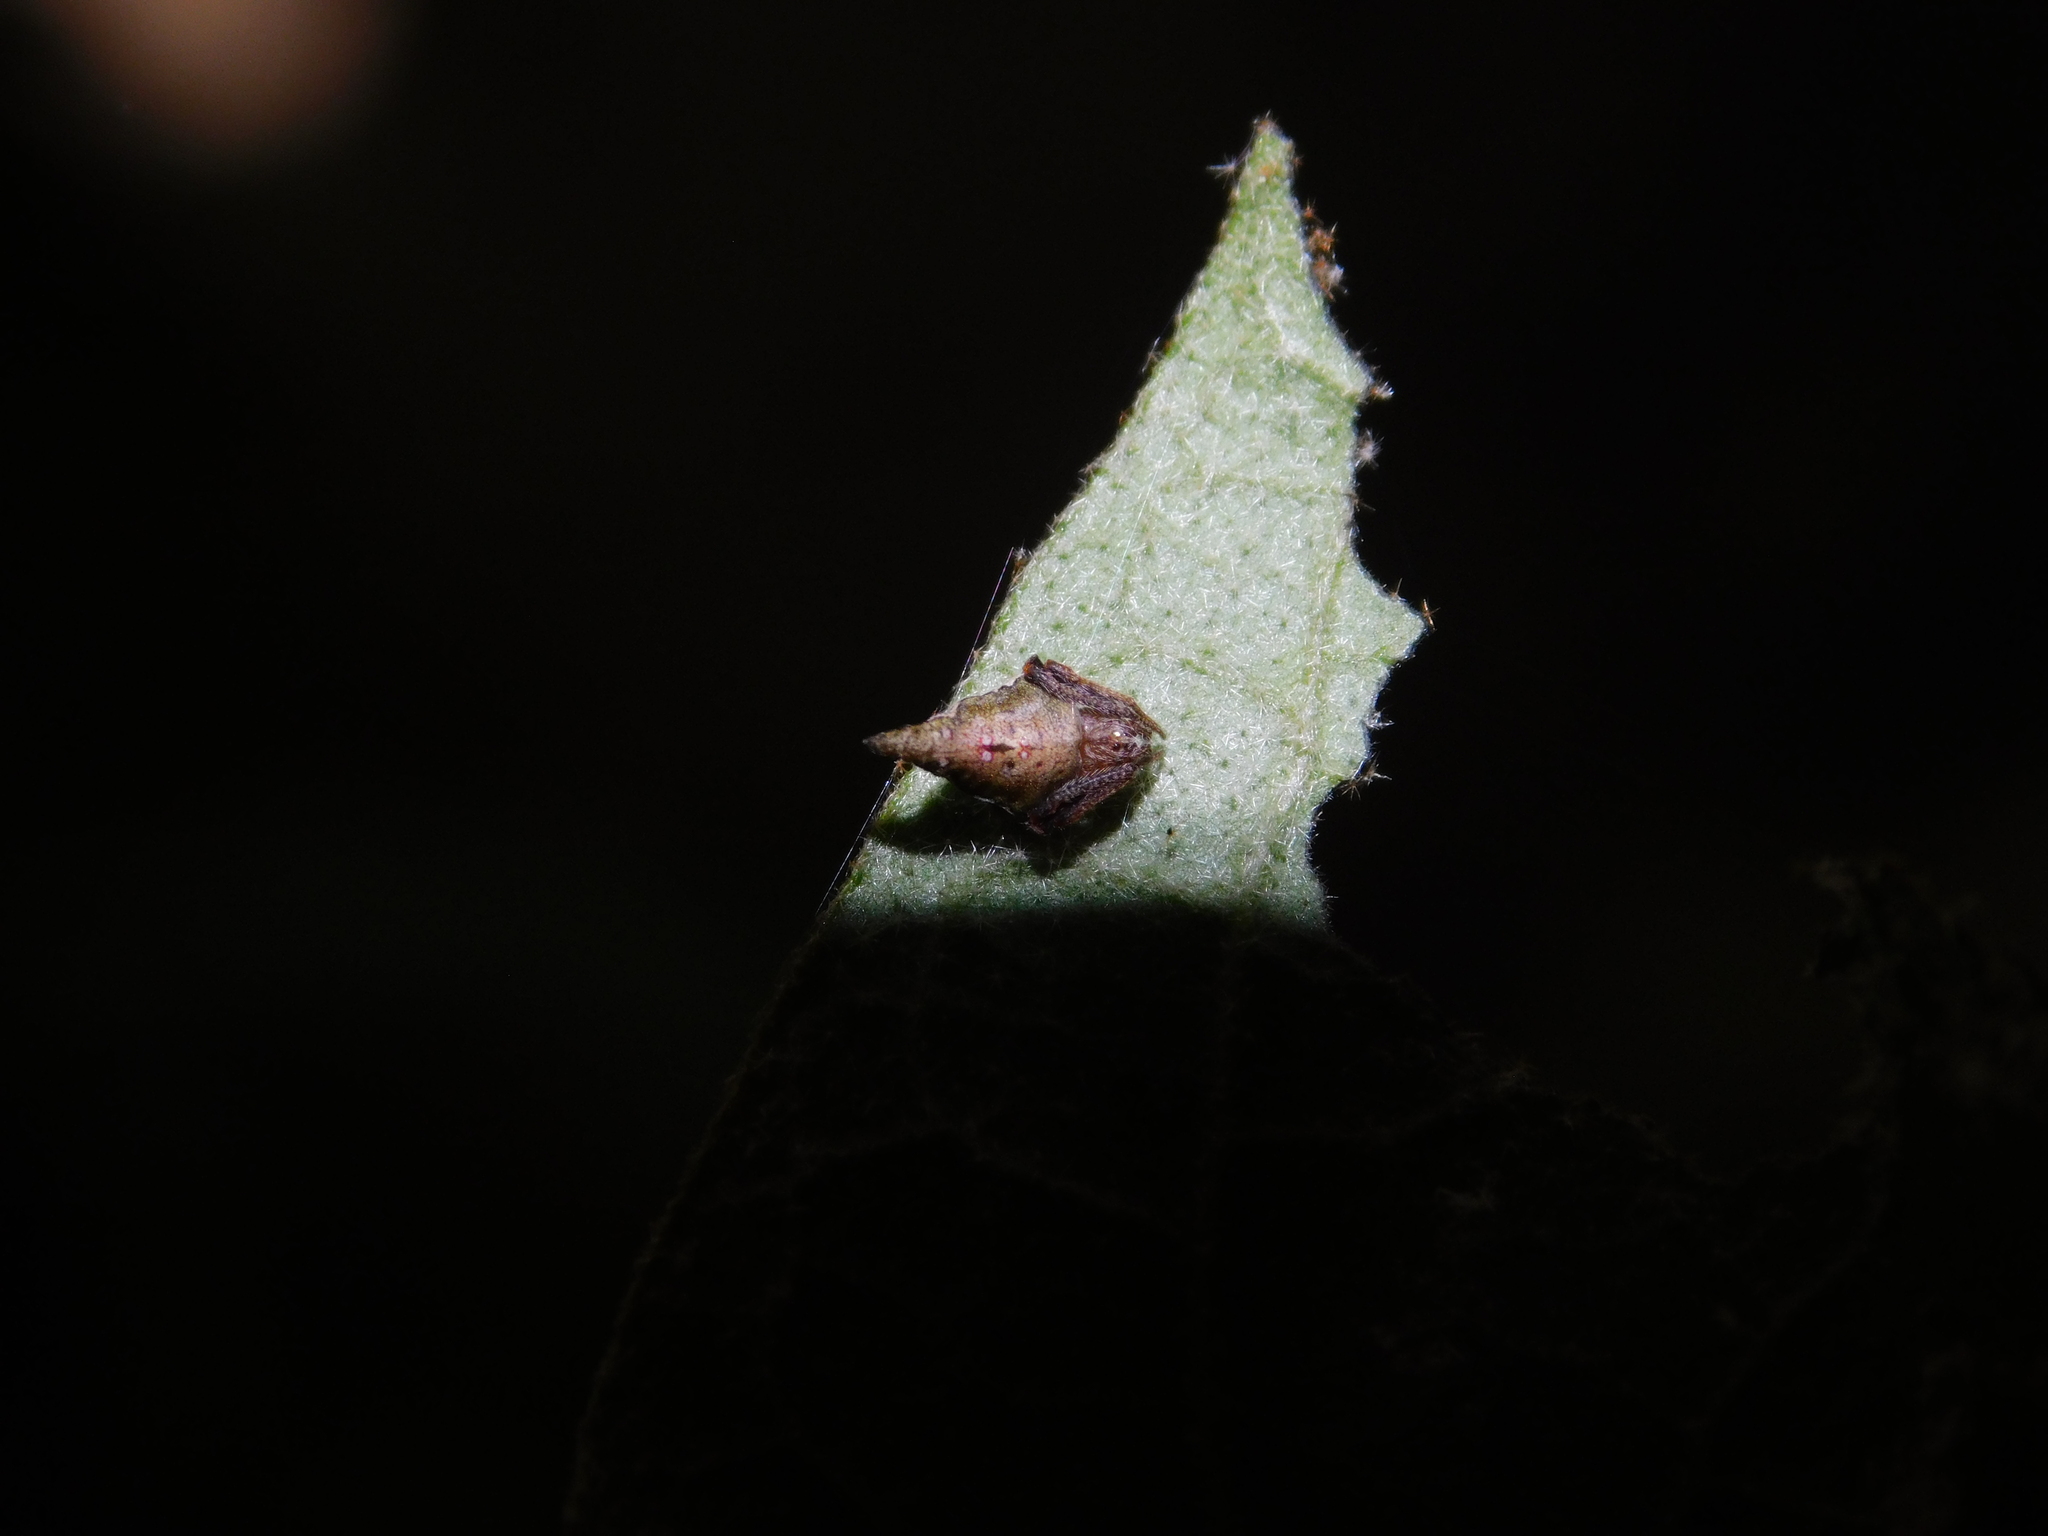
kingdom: Animalia
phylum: Arthropoda
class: Arachnida
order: Araneae
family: Araneidae
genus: Eriovixia
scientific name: Eriovixia pseudocentrodes
